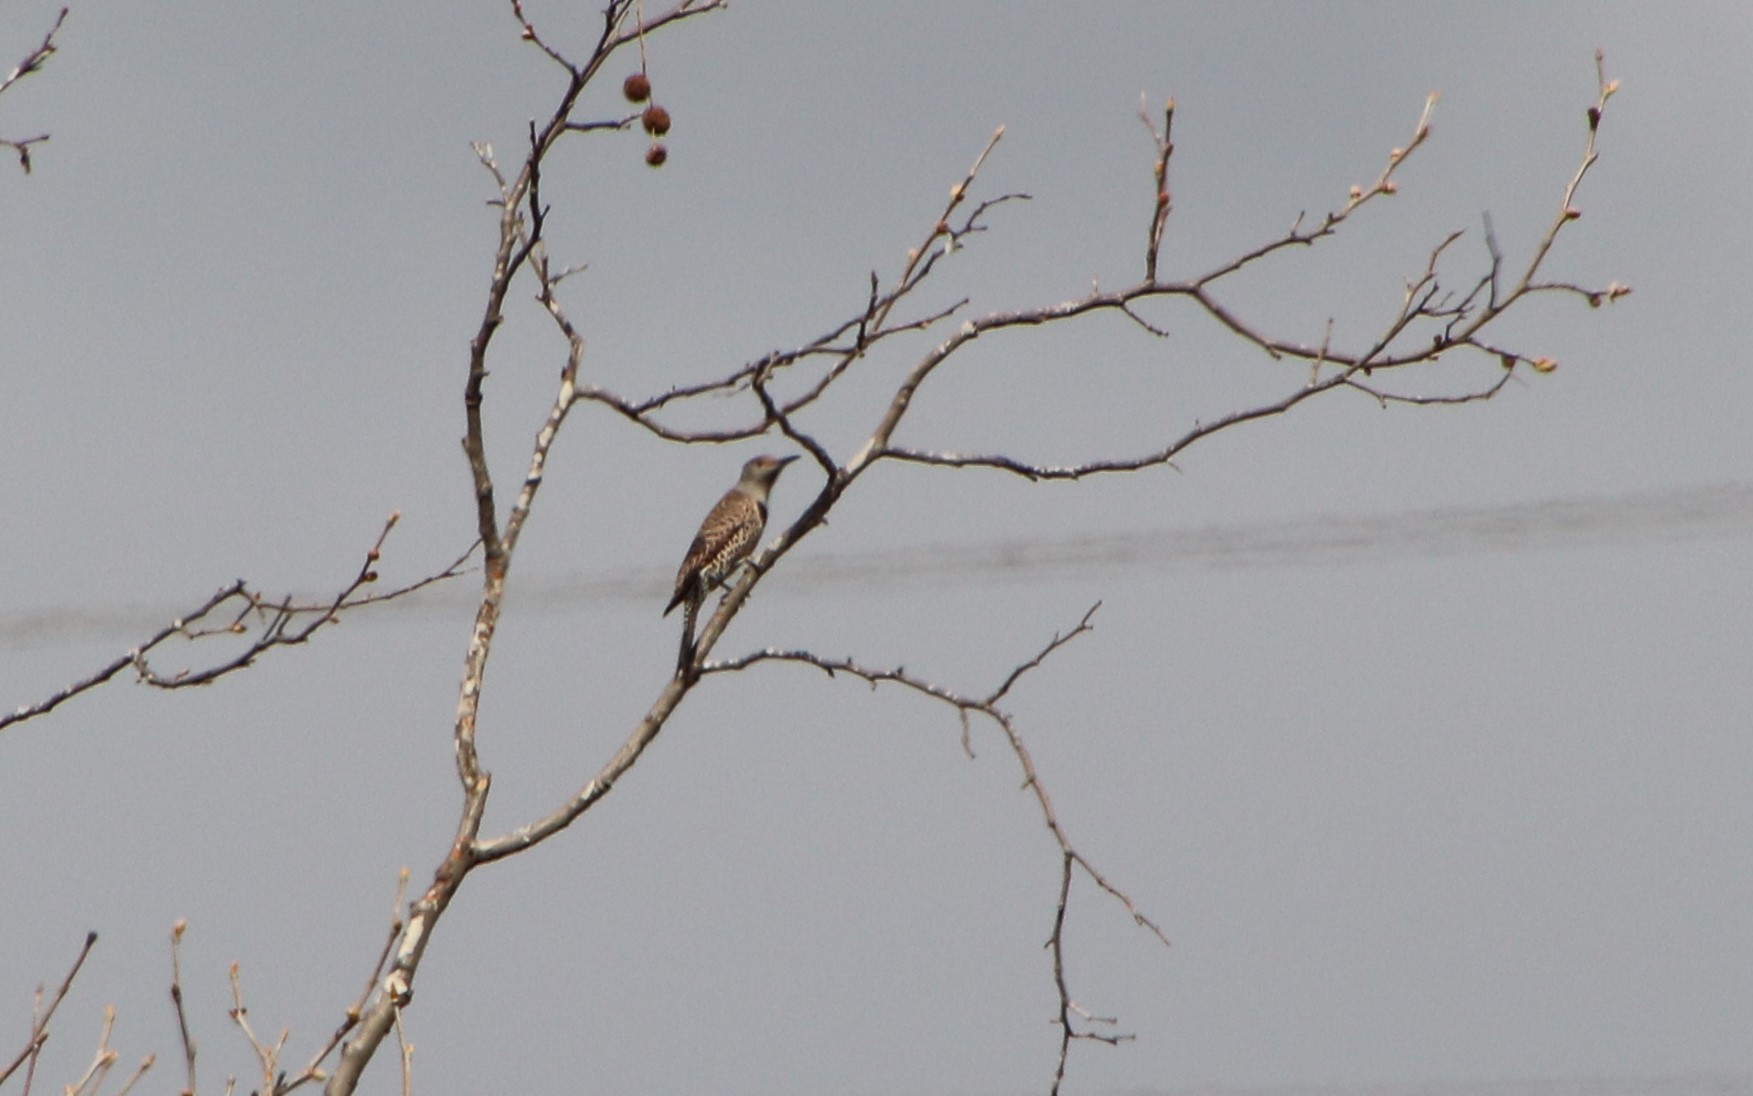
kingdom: Animalia
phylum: Chordata
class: Aves
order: Piciformes
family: Picidae
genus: Colaptes
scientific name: Colaptes auratus
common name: Northern flicker
